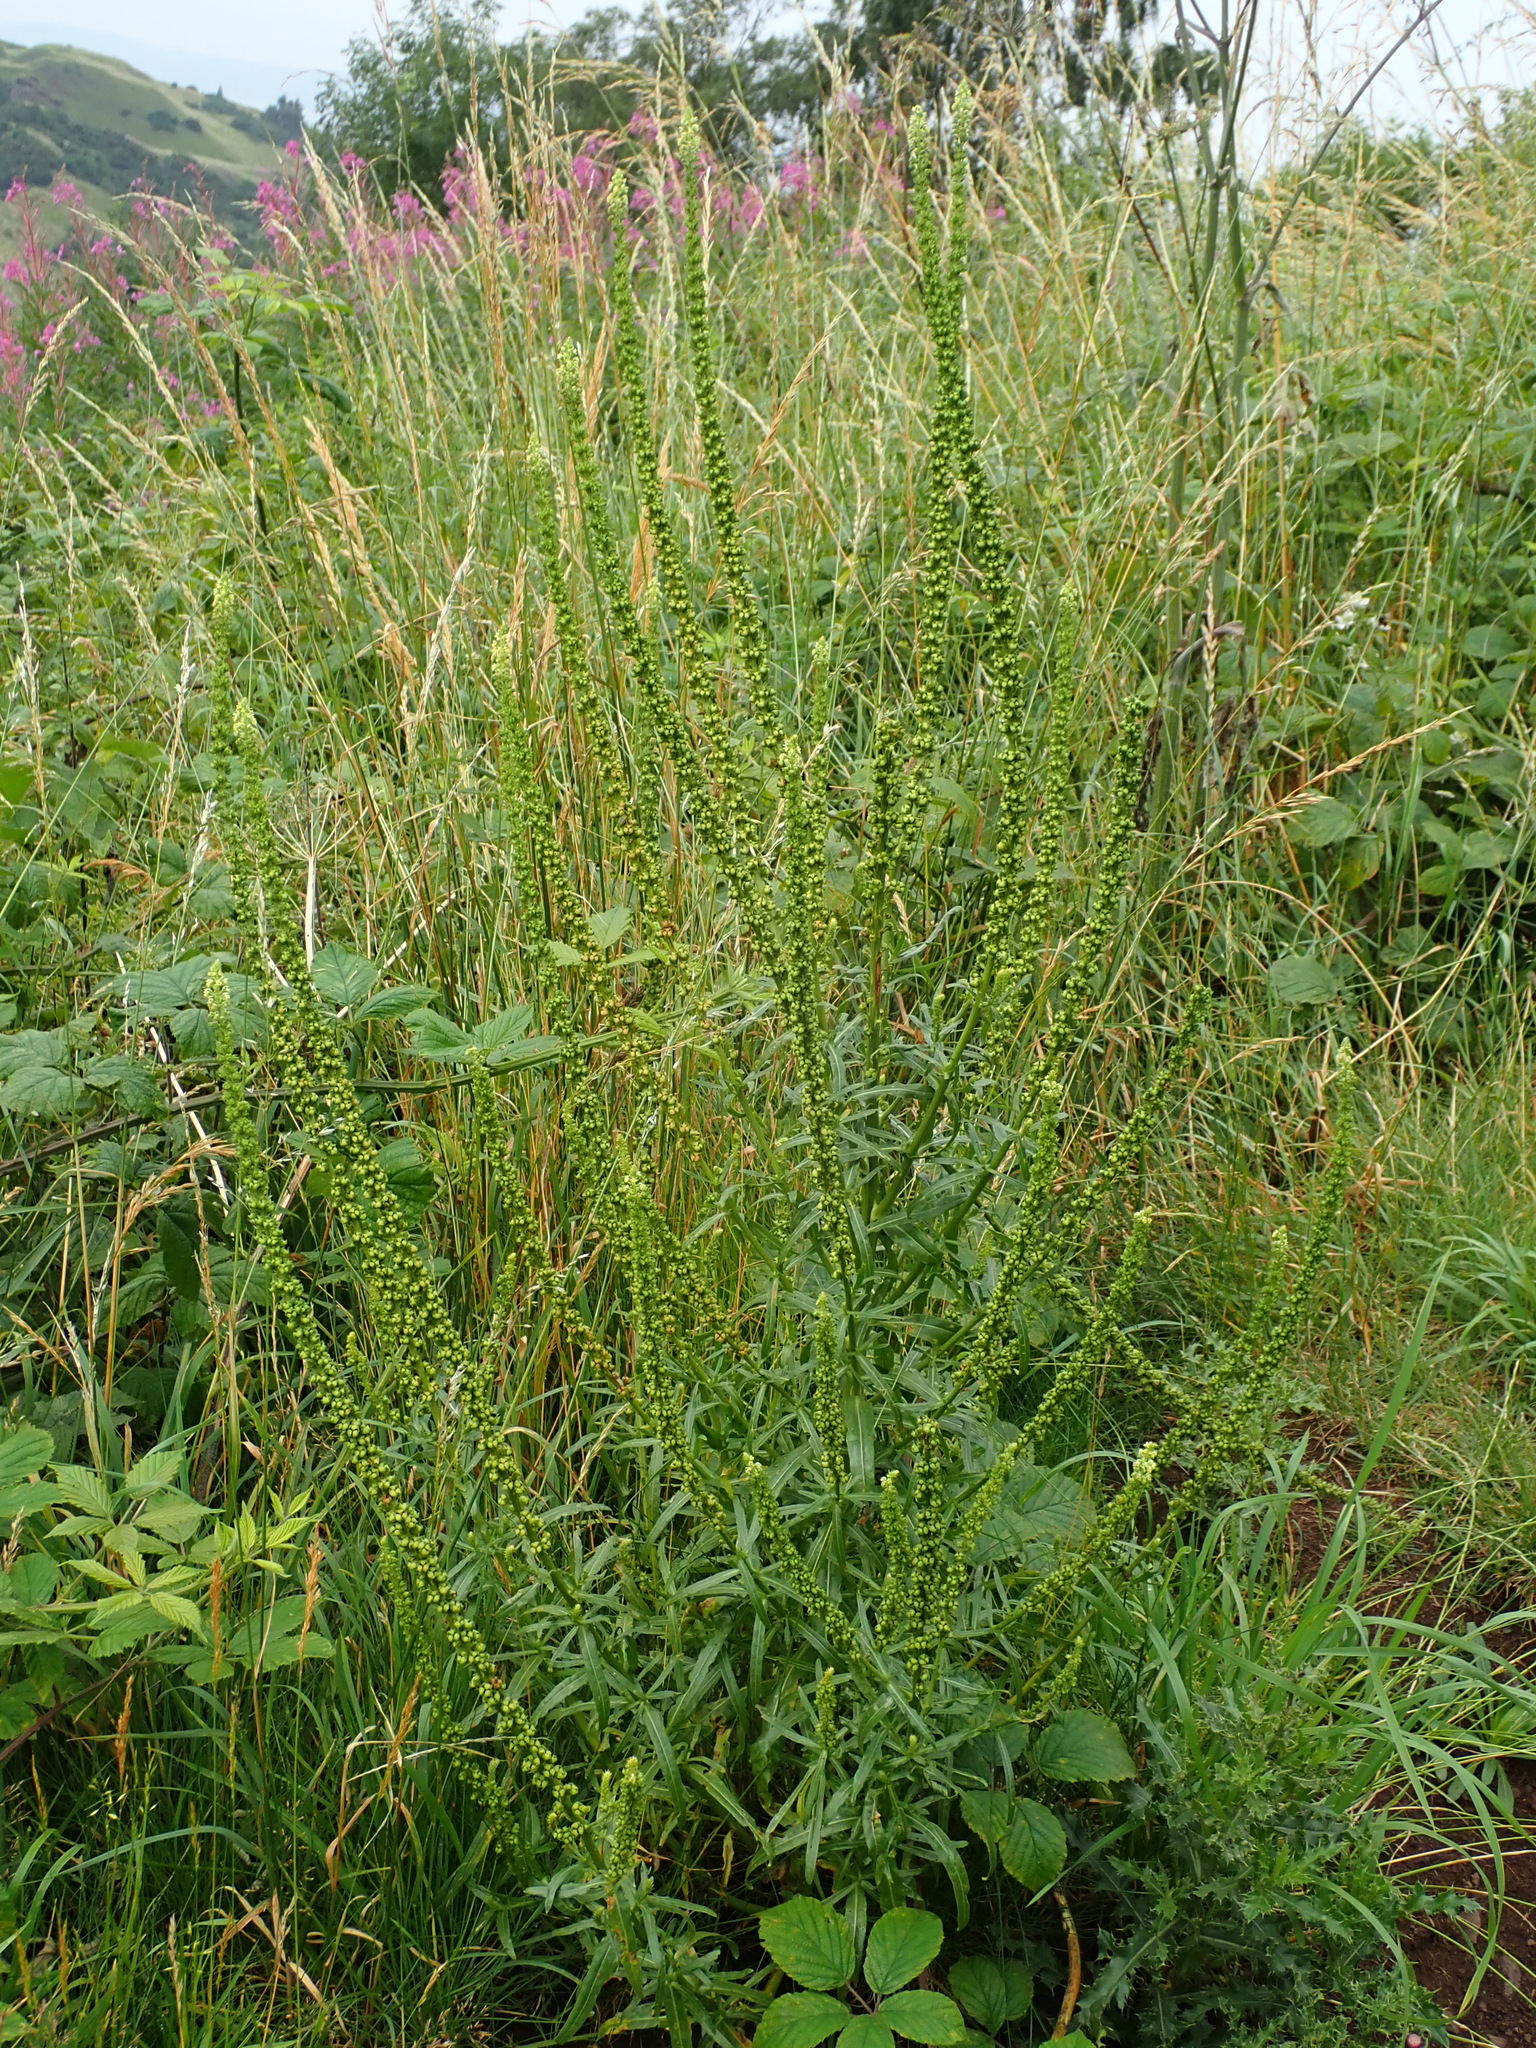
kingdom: Plantae
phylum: Tracheophyta
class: Magnoliopsida
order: Brassicales
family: Resedaceae
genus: Reseda
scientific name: Reseda luteola
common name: Weld
